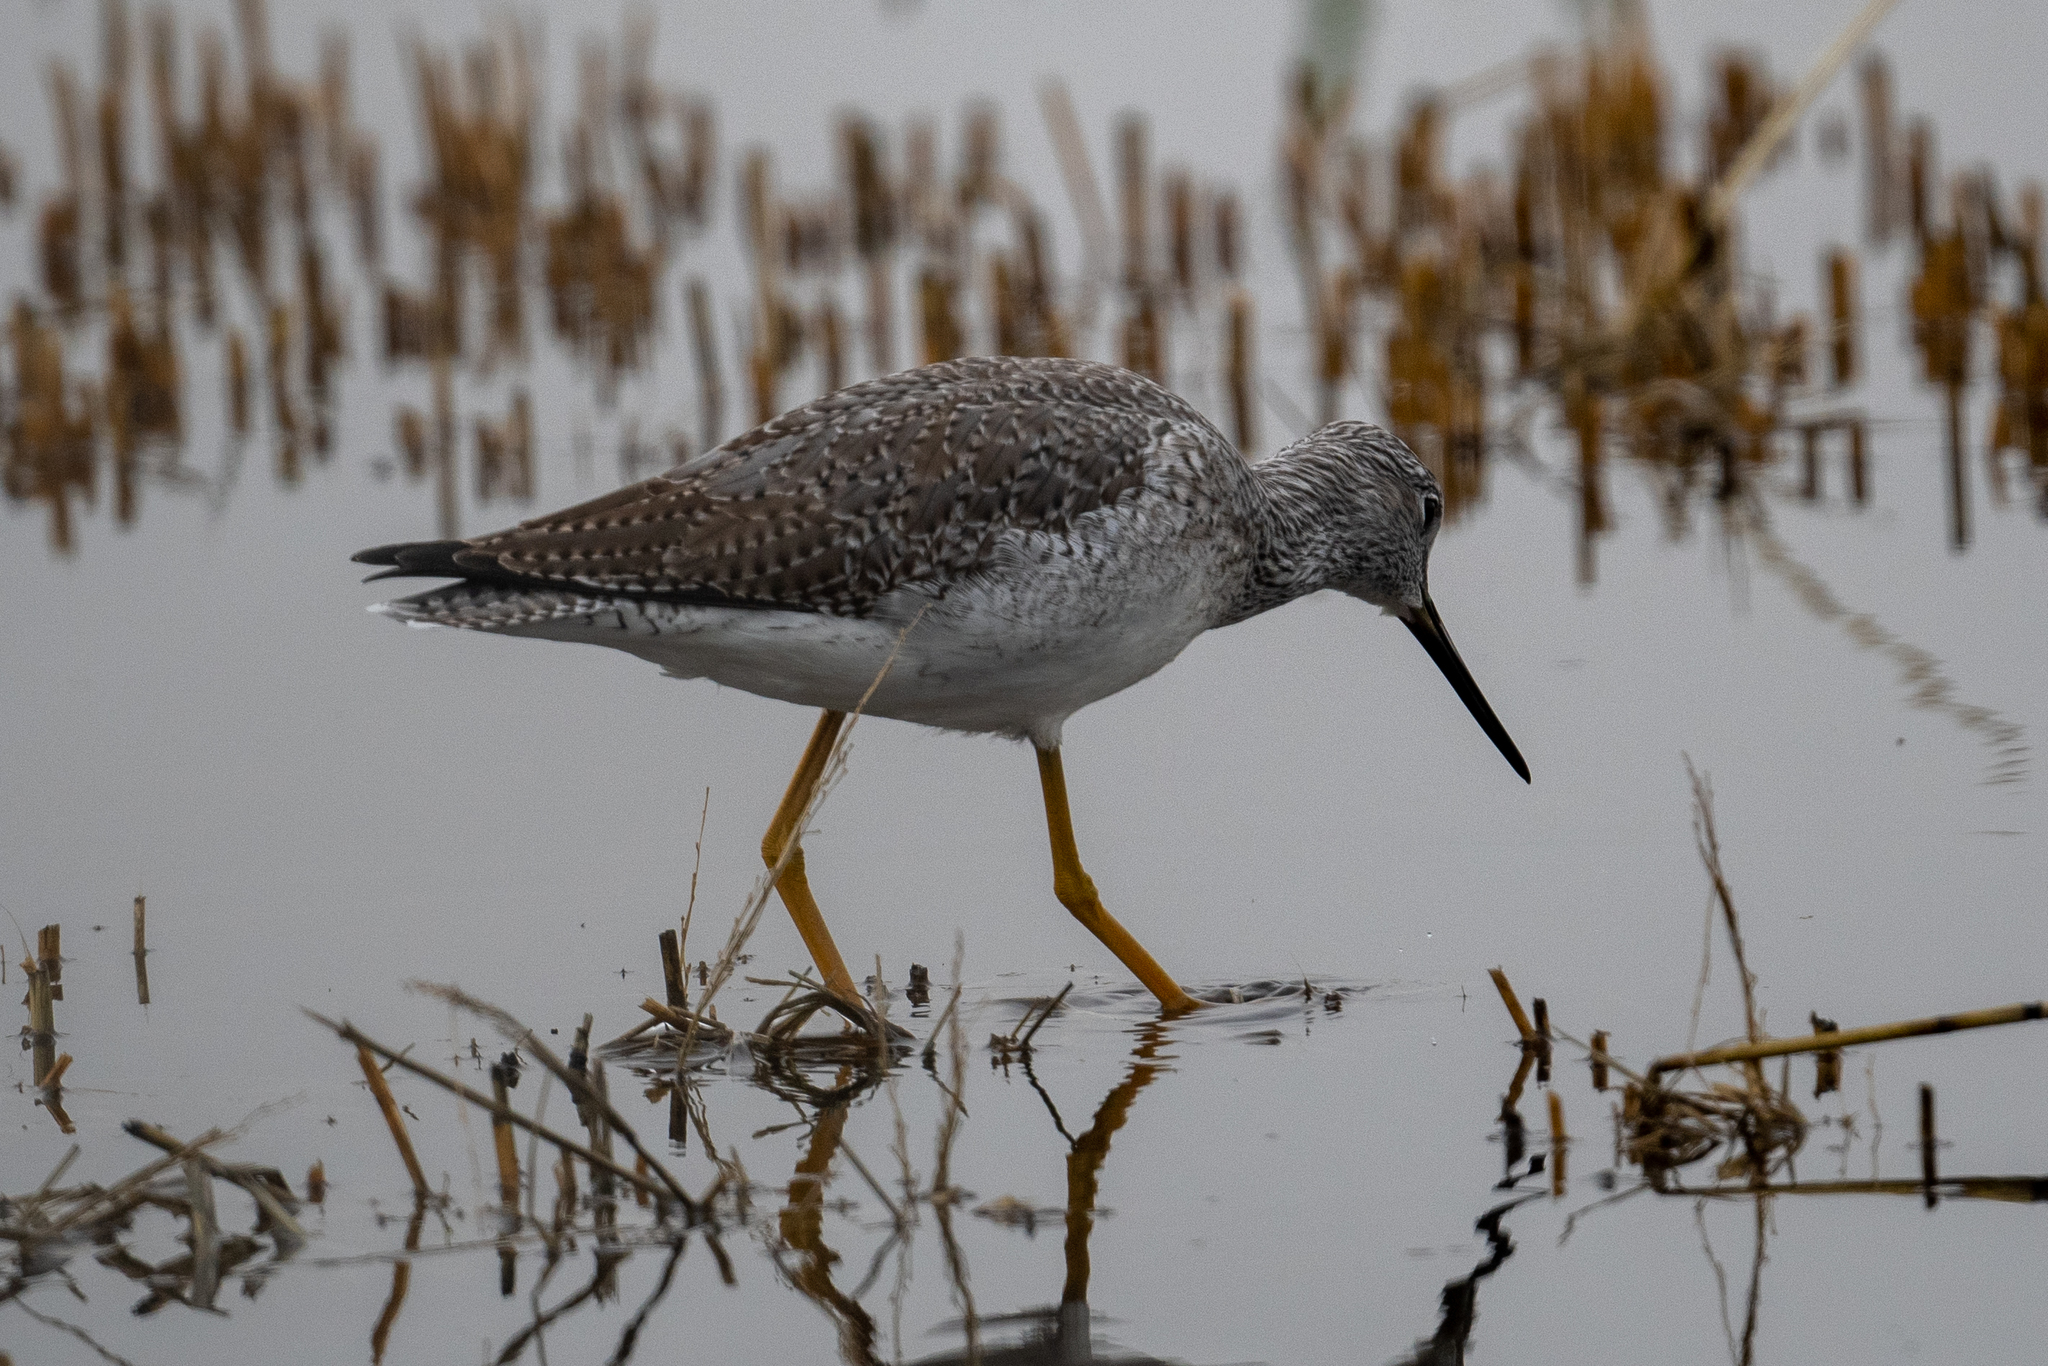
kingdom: Animalia
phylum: Chordata
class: Aves
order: Charadriiformes
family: Scolopacidae
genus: Tringa
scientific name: Tringa melanoleuca
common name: Greater yellowlegs
